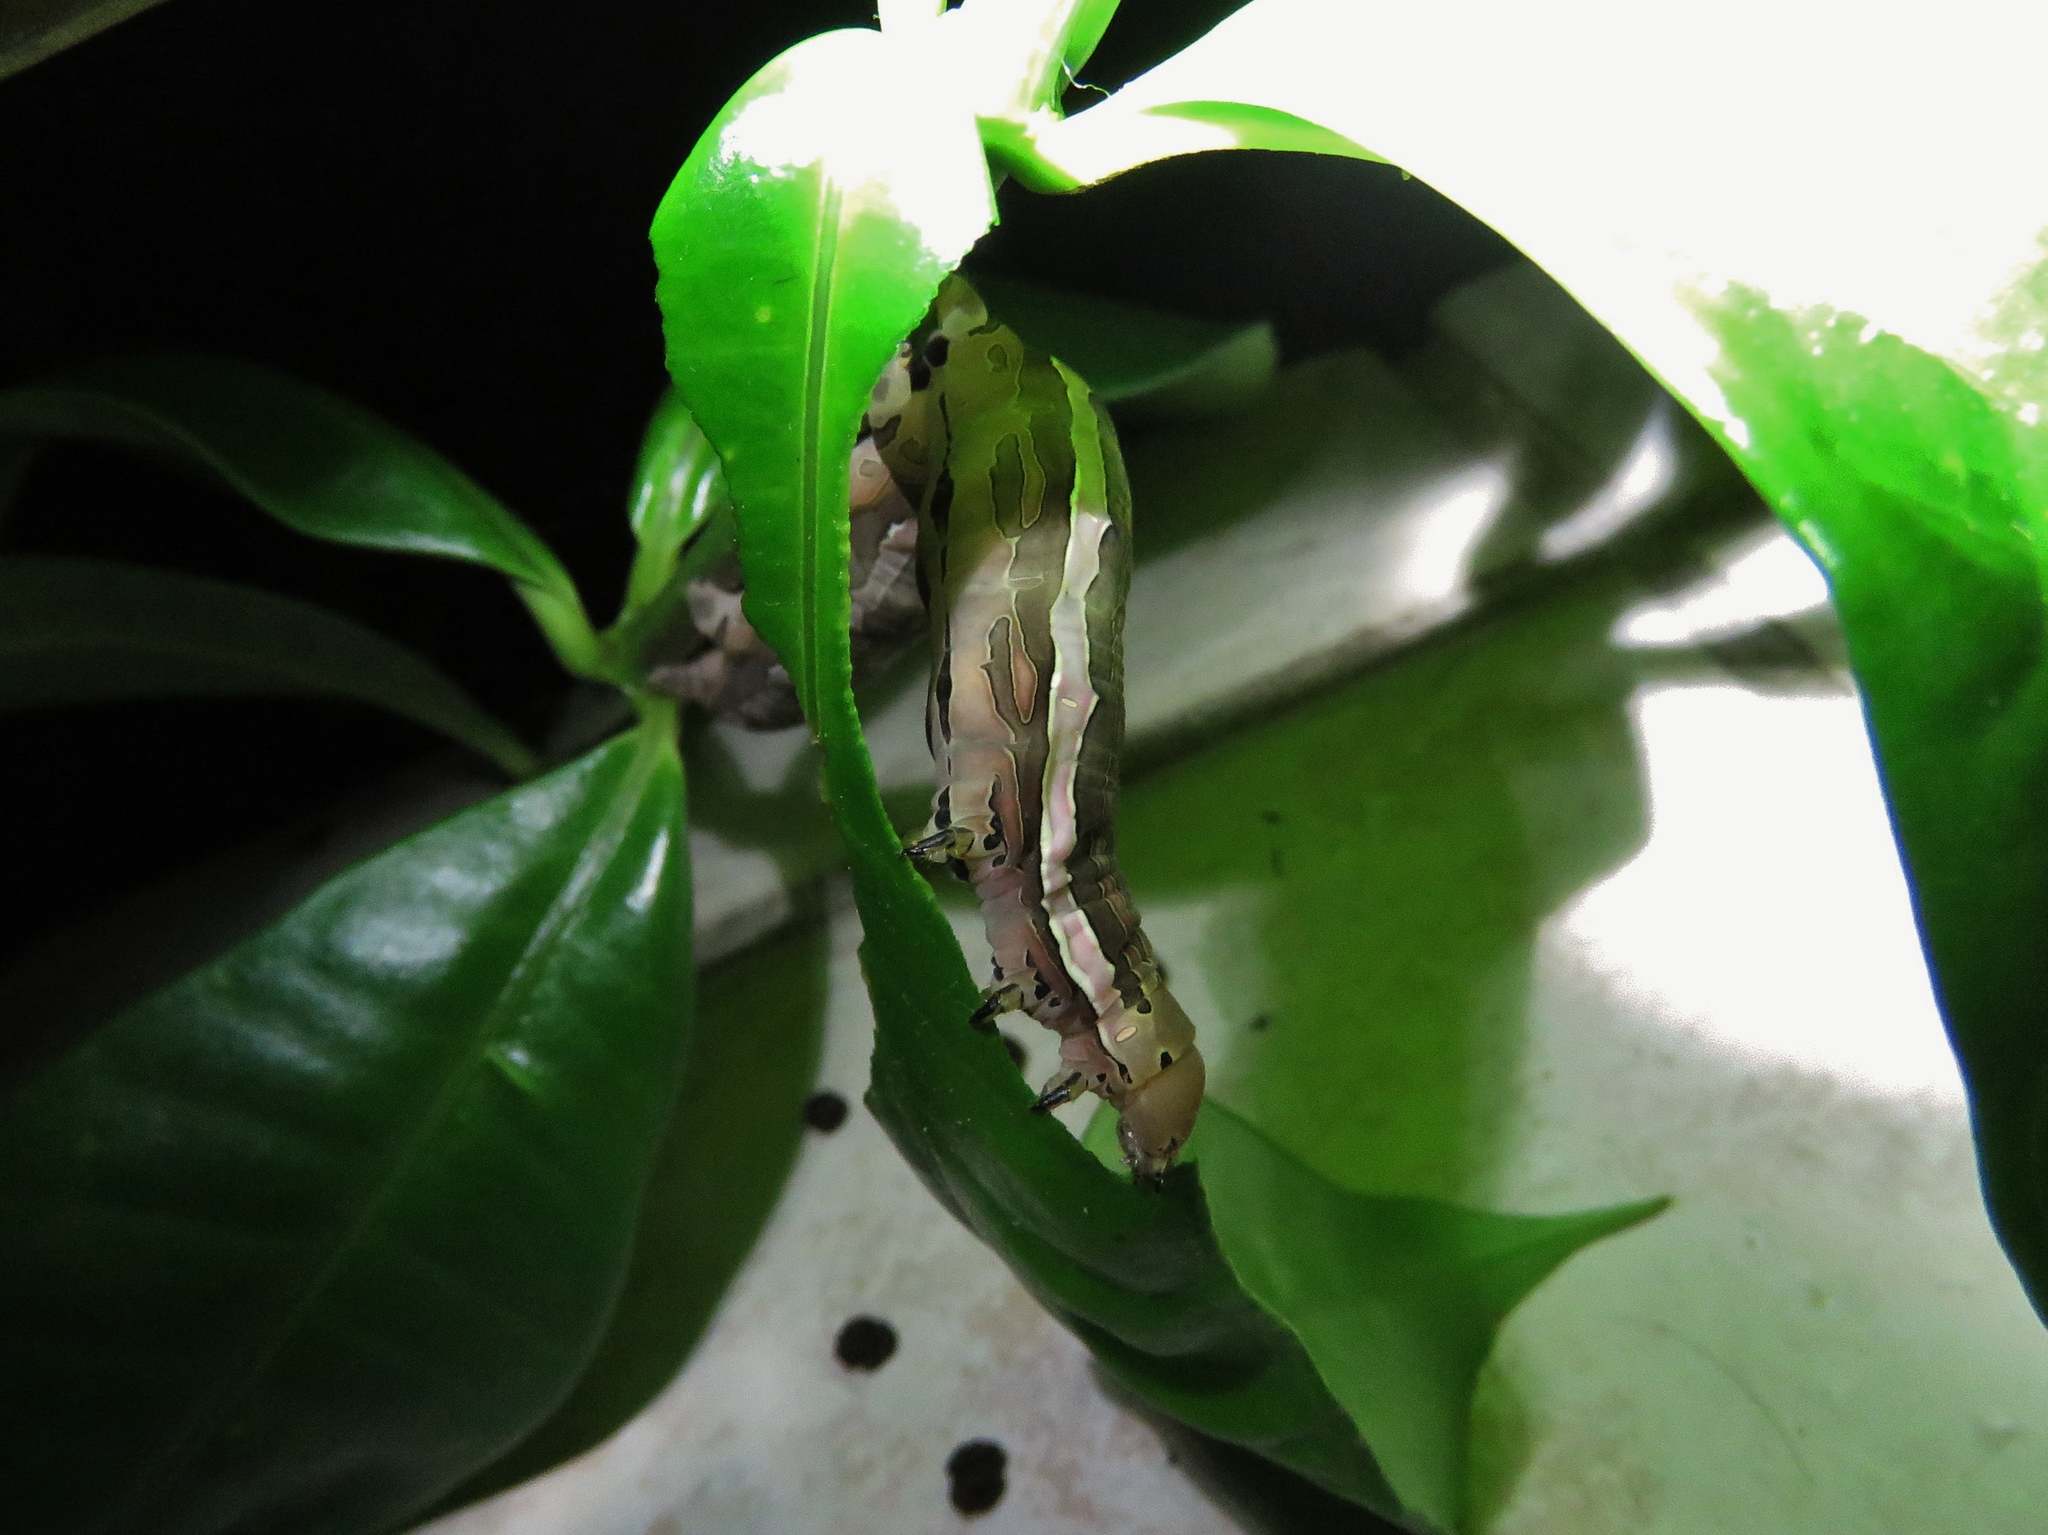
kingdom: Animalia
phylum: Arthropoda
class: Insecta
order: Lepidoptera
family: Sphingidae
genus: Isognathus
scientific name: Isognathus scyron
